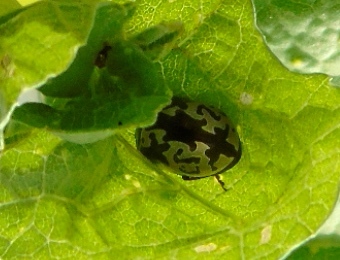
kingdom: Animalia
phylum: Arthropoda
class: Insecta
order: Coleoptera
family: Chrysomelidae
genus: Calligrapha
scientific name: Calligrapha intermedia
